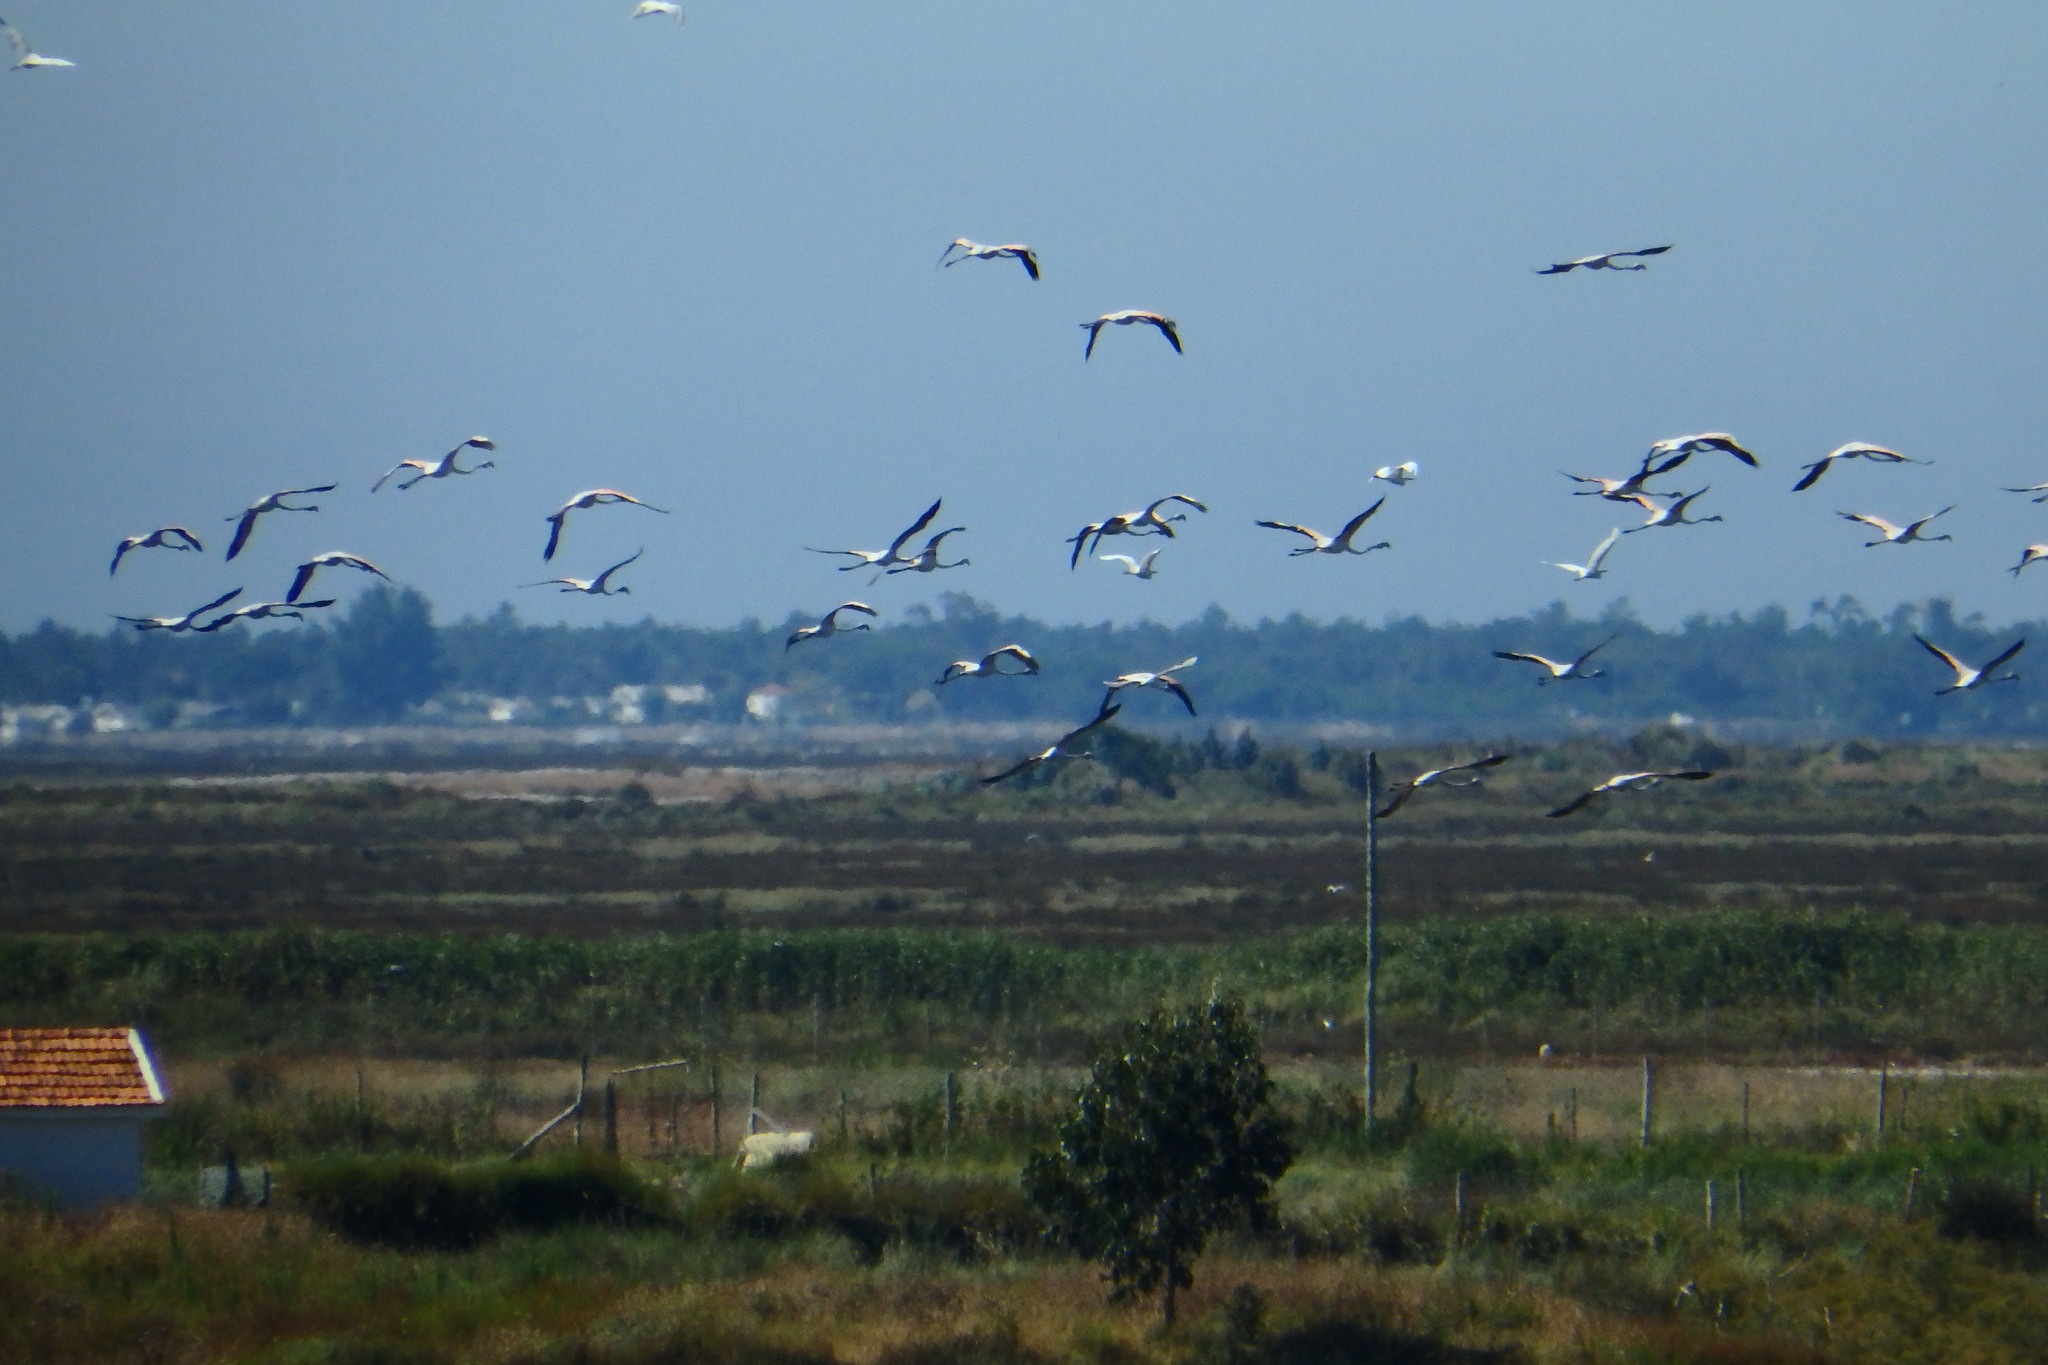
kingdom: Animalia
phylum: Chordata
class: Aves
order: Phoenicopteriformes
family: Phoenicopteridae
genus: Phoenicopterus
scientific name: Phoenicopterus roseus
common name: Greater flamingo
